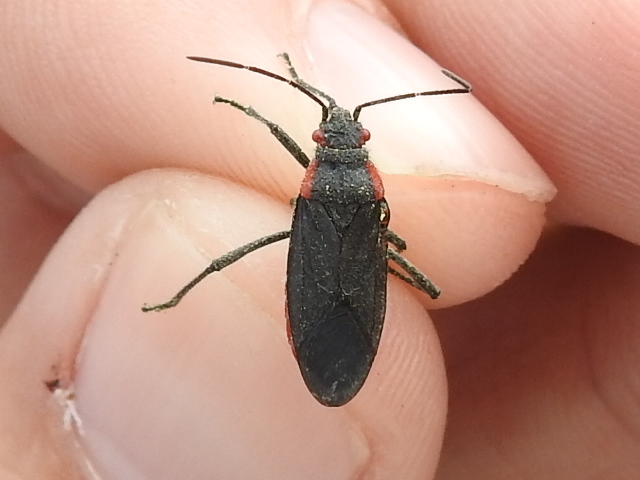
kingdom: Animalia
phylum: Arthropoda
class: Insecta
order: Hemiptera
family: Rhopalidae
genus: Jadera
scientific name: Jadera haematoloma
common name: Red-shouldered bug
